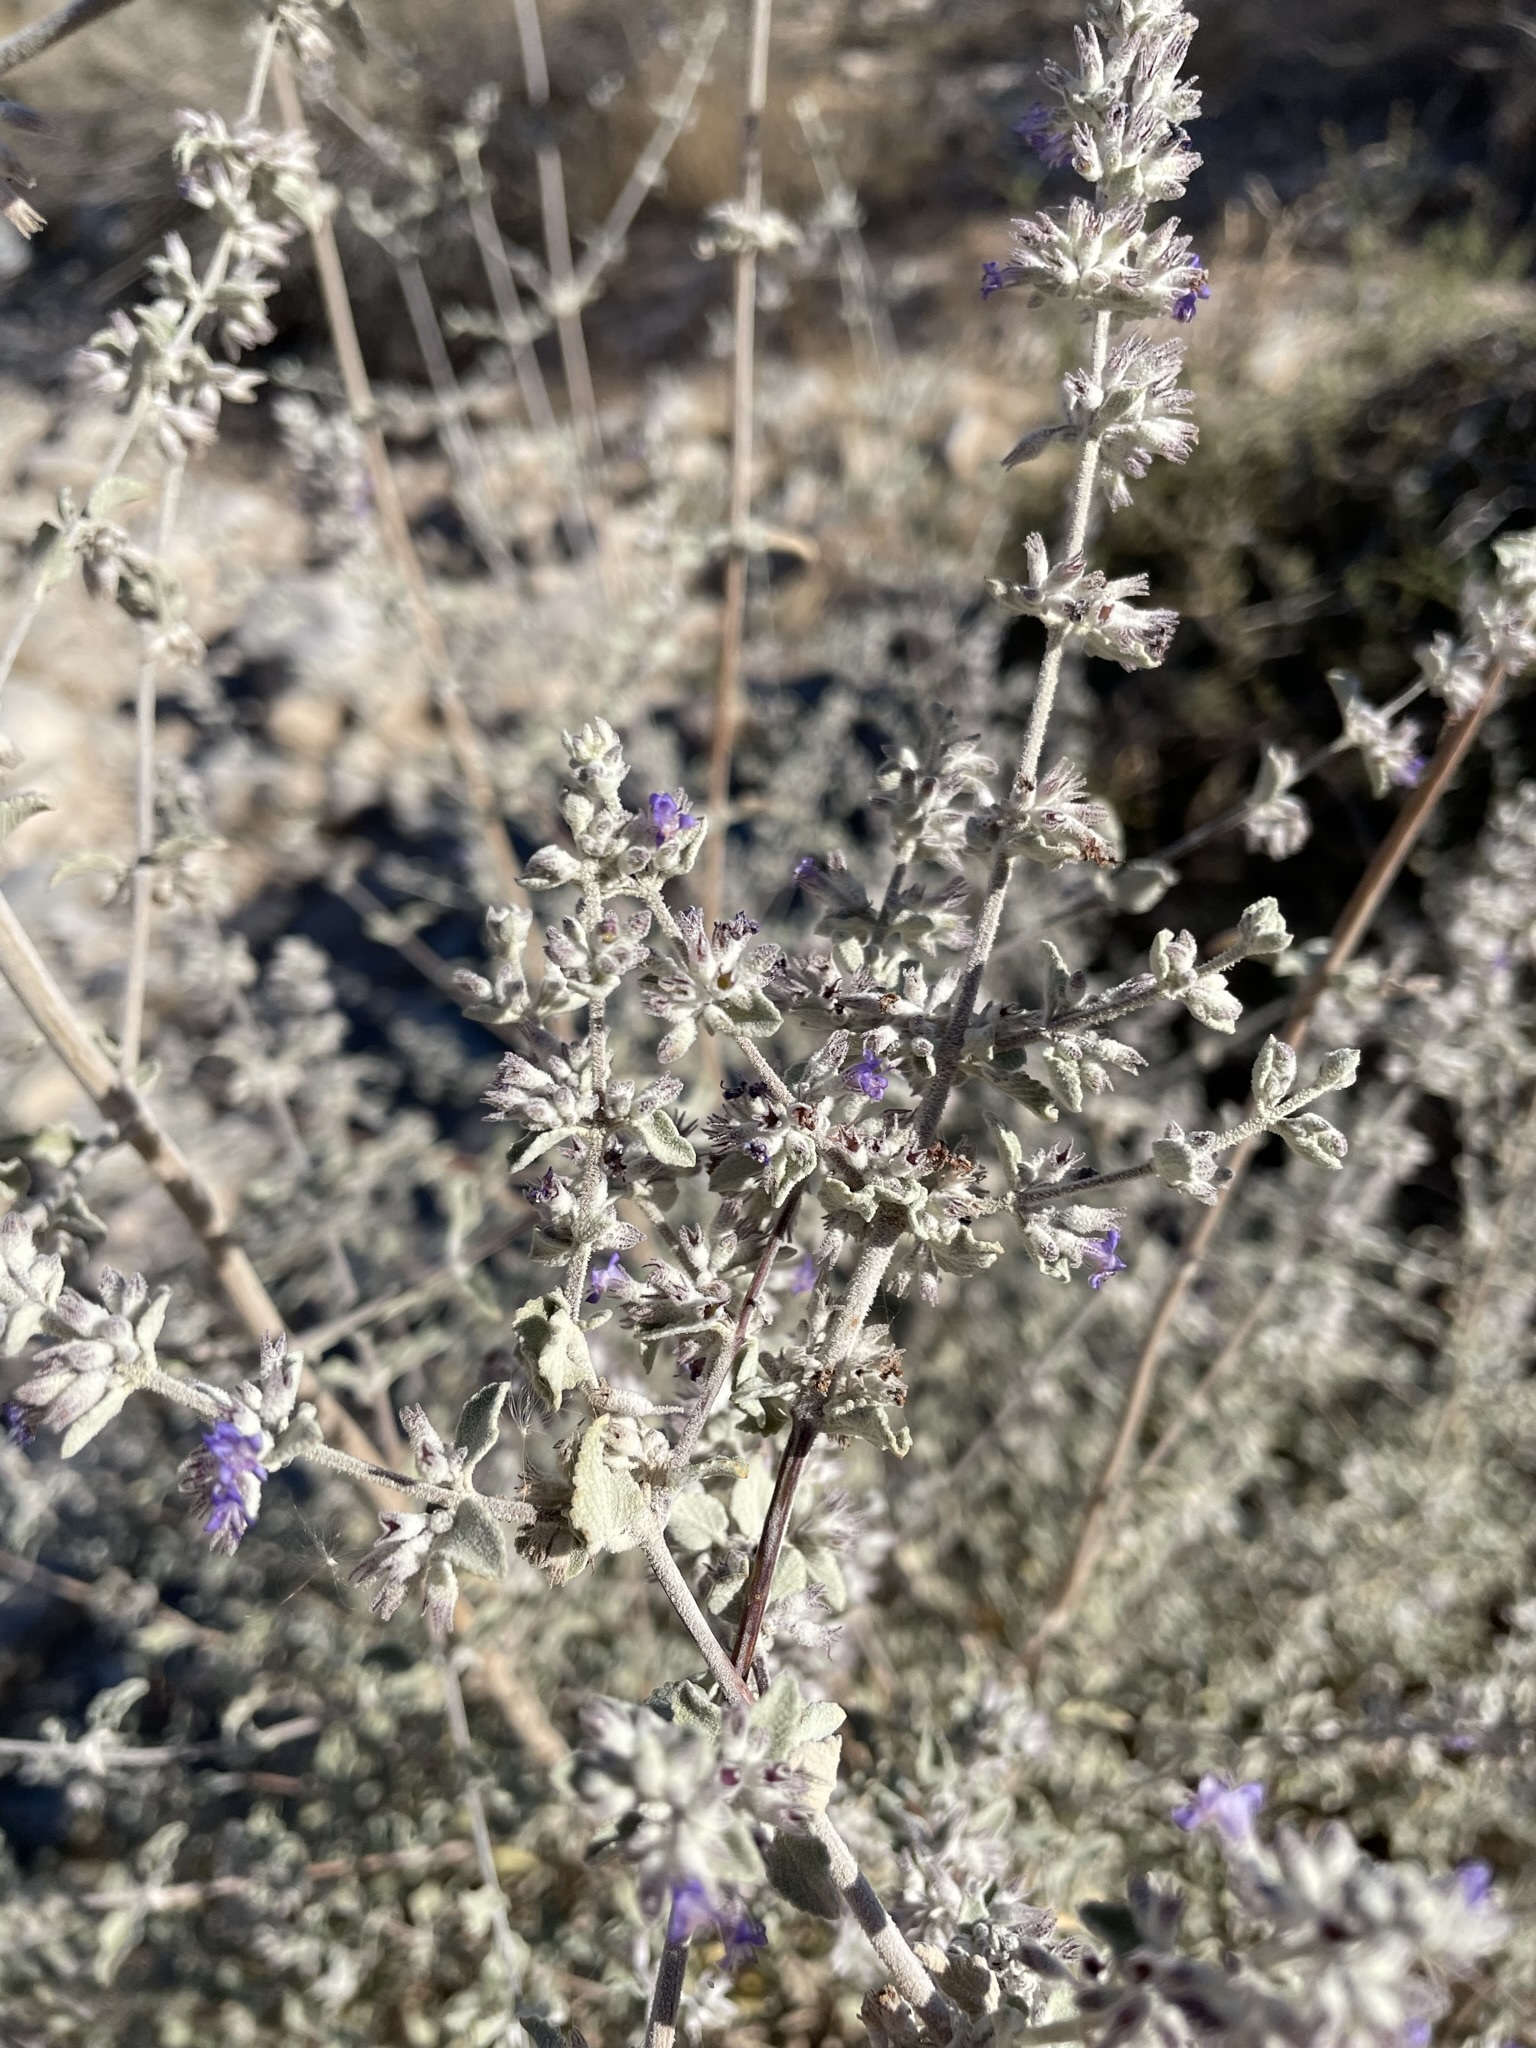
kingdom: Plantae
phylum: Tracheophyta
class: Magnoliopsida
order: Lamiales
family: Lamiaceae
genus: Condea
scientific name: Condea emoryi
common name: Chia
